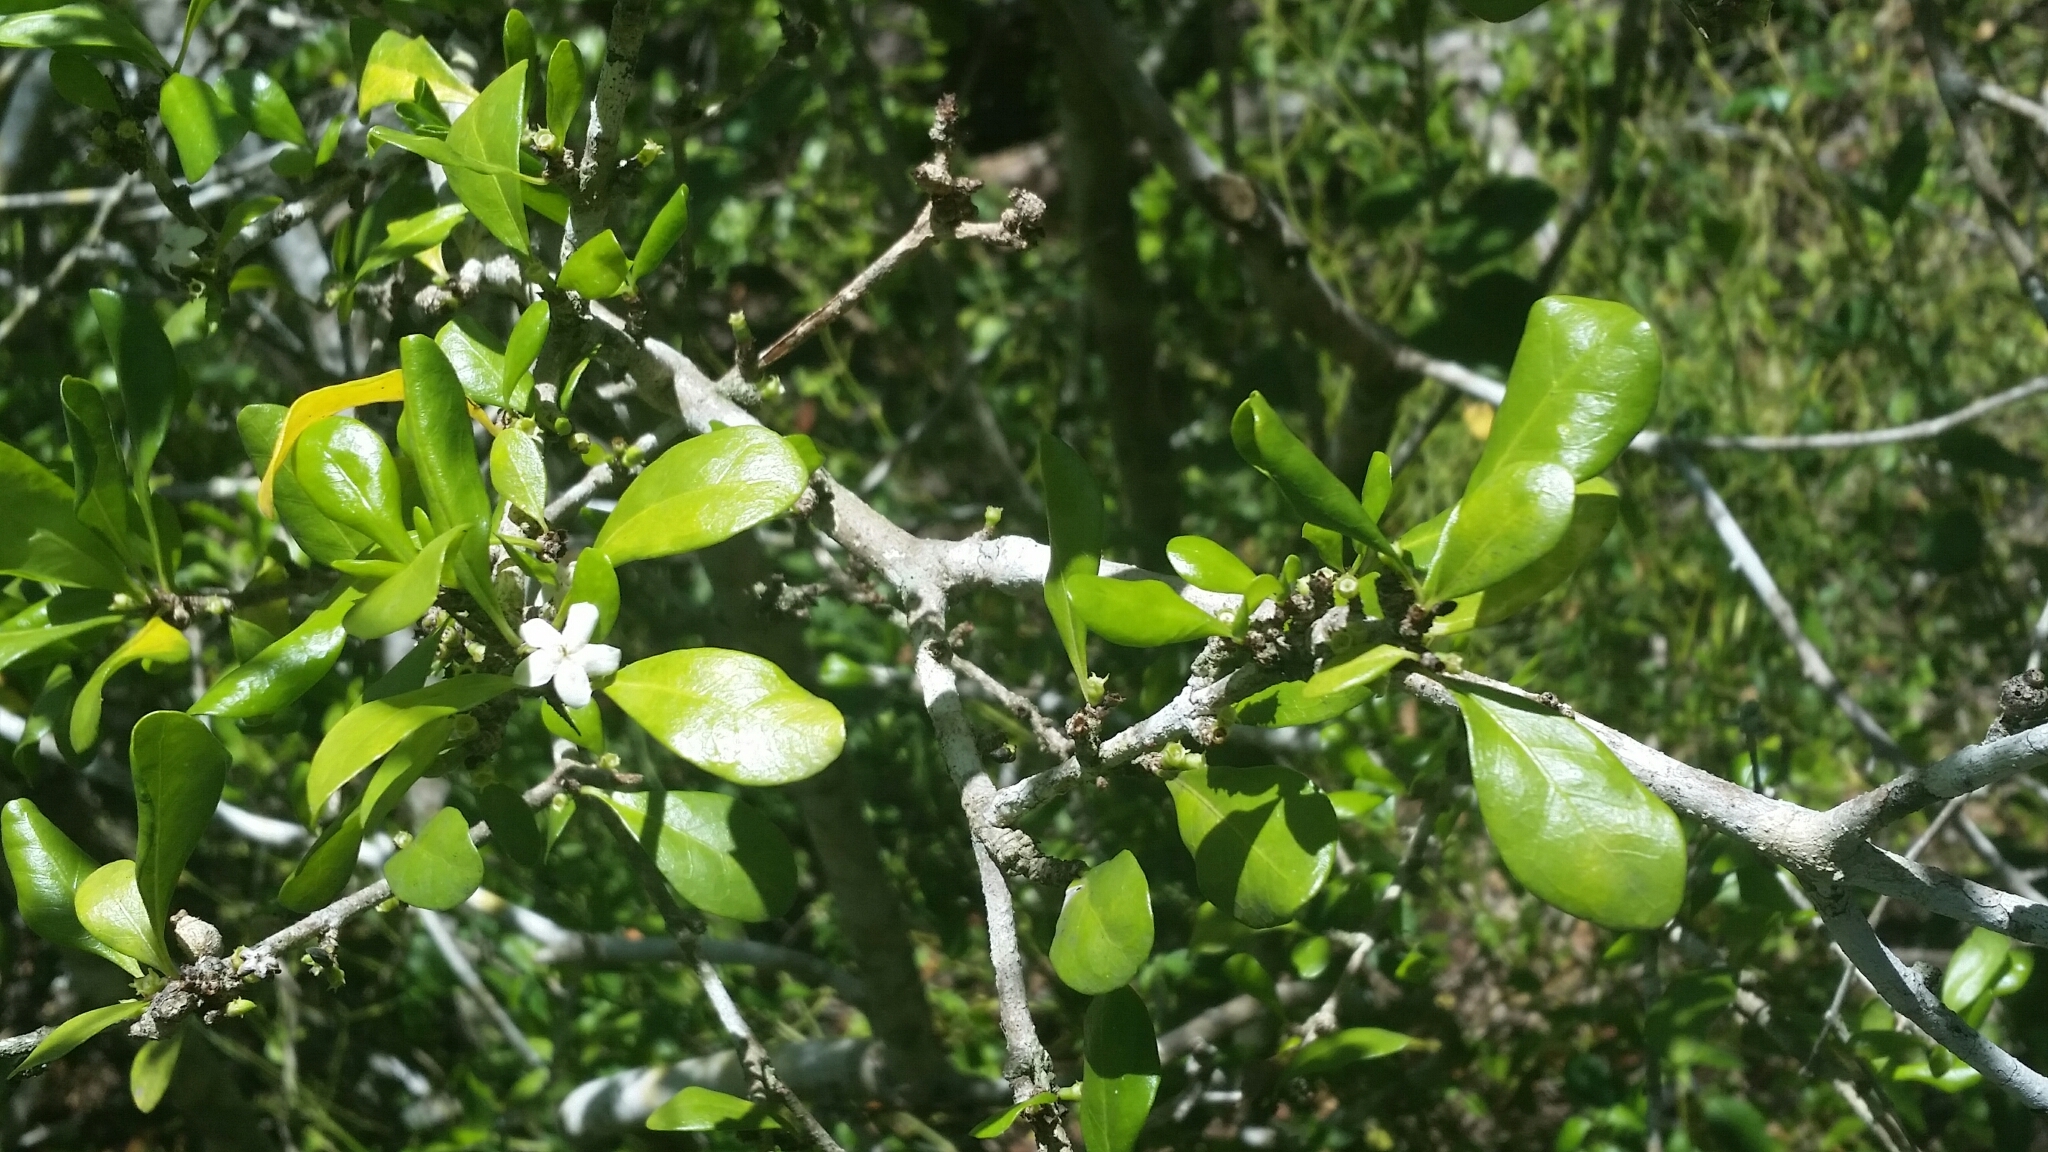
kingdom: Plantae
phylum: Tracheophyta
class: Magnoliopsida
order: Gentianales
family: Rubiaceae
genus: Randia
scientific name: Randia aculeata
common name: Inkberry
